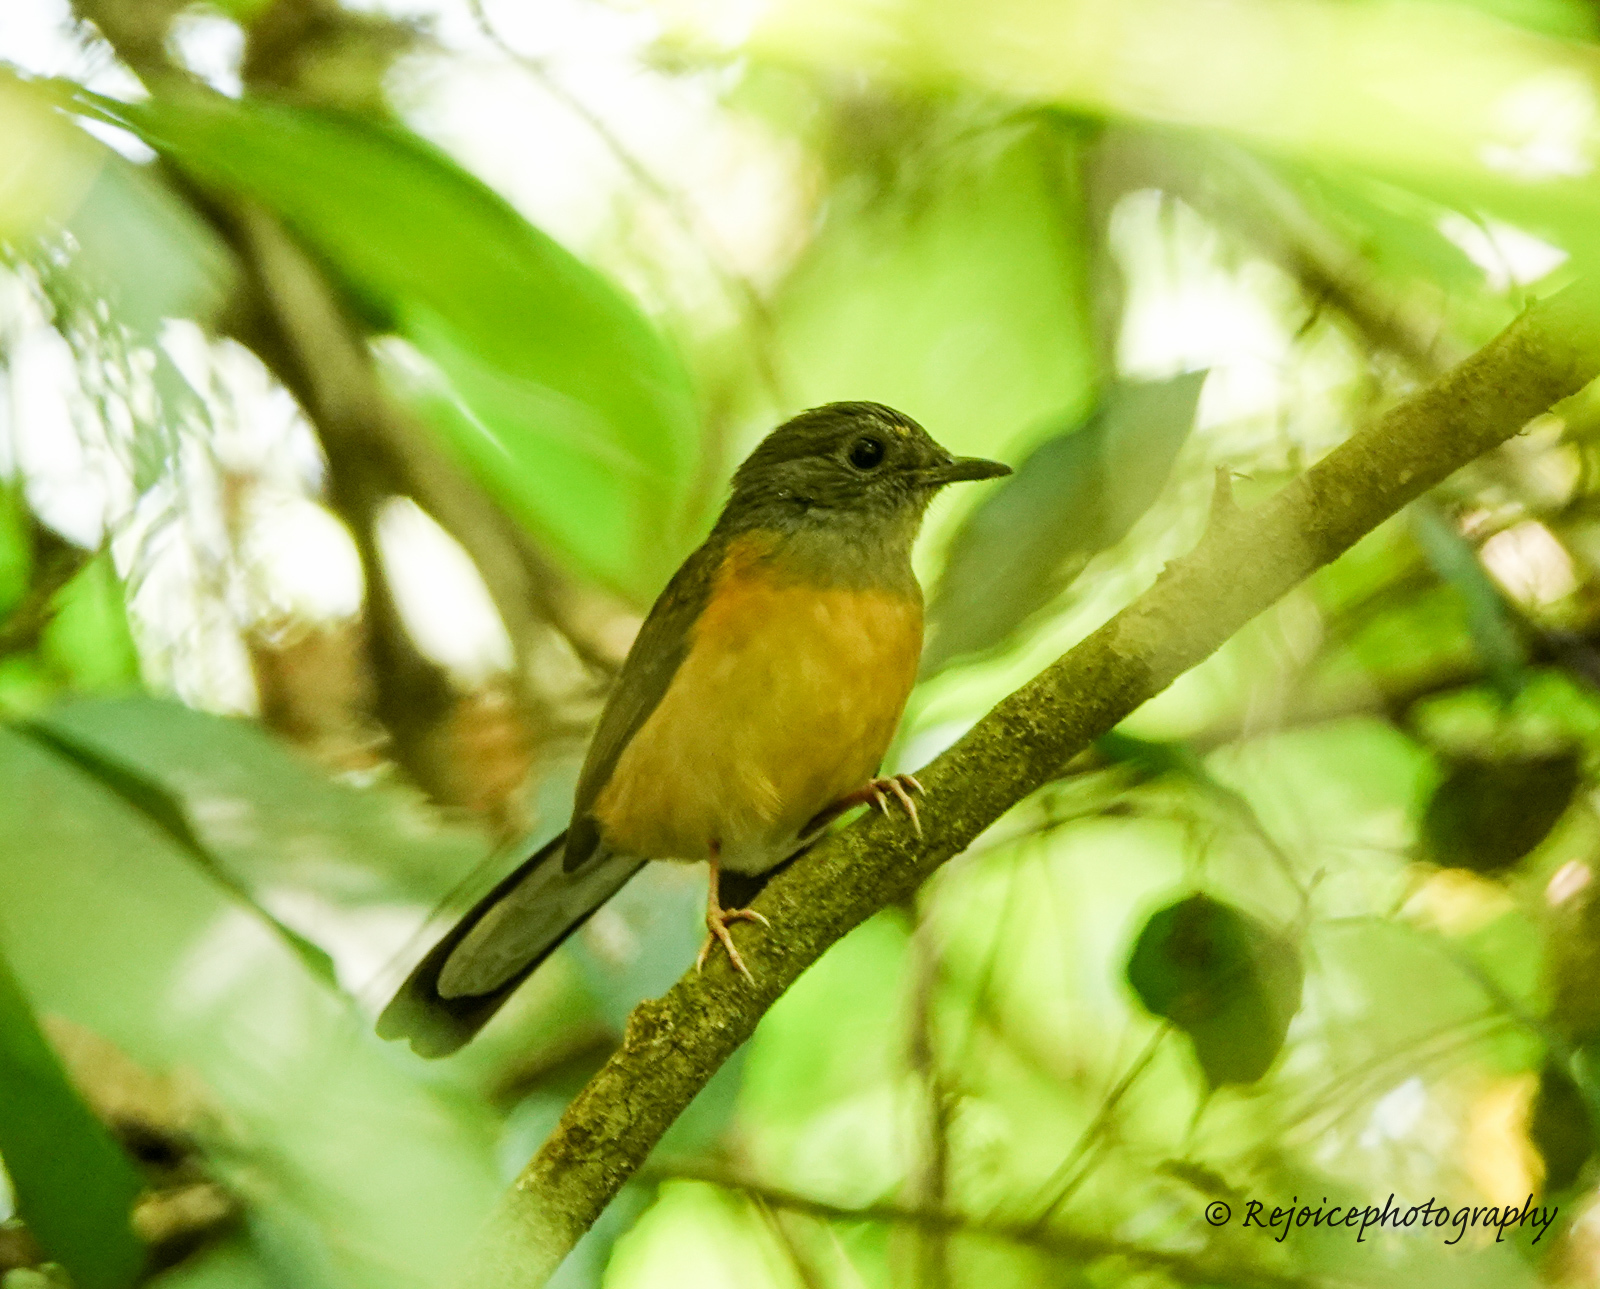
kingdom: Animalia
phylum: Chordata
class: Aves
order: Passeriformes
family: Muscicapidae
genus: Copsychus
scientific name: Copsychus malabaricus
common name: White-rumped shama
